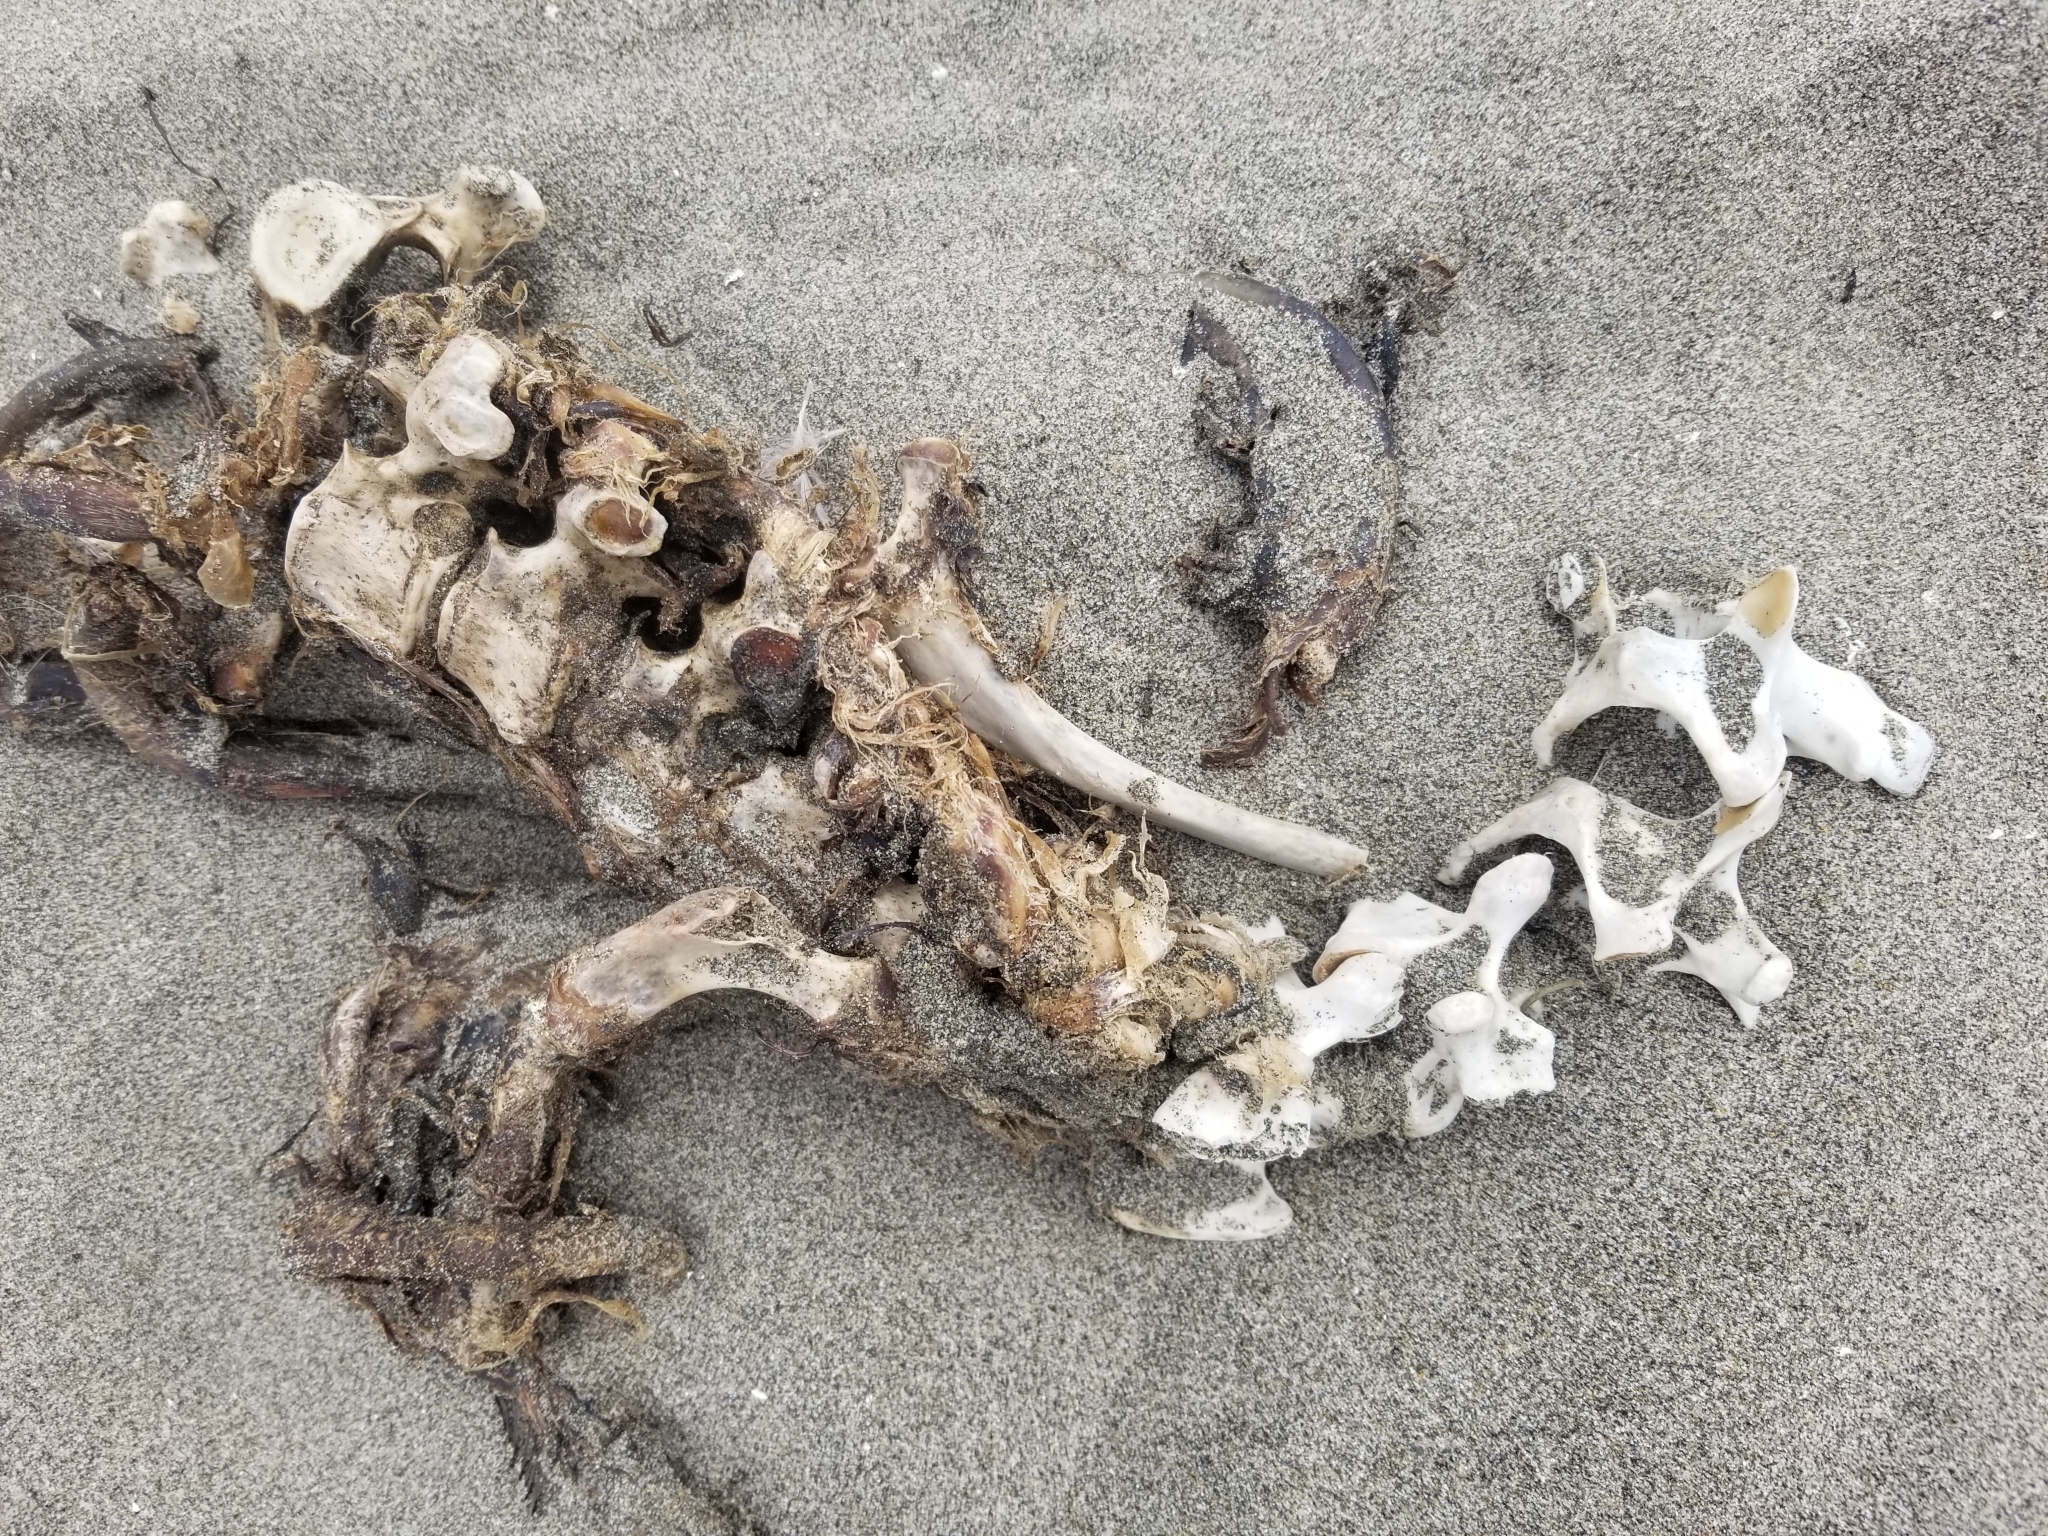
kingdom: Animalia
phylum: Chordata
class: Mammalia
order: Carnivora
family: Otariidae
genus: Zalophus
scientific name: Zalophus californianus
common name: California sea lion
